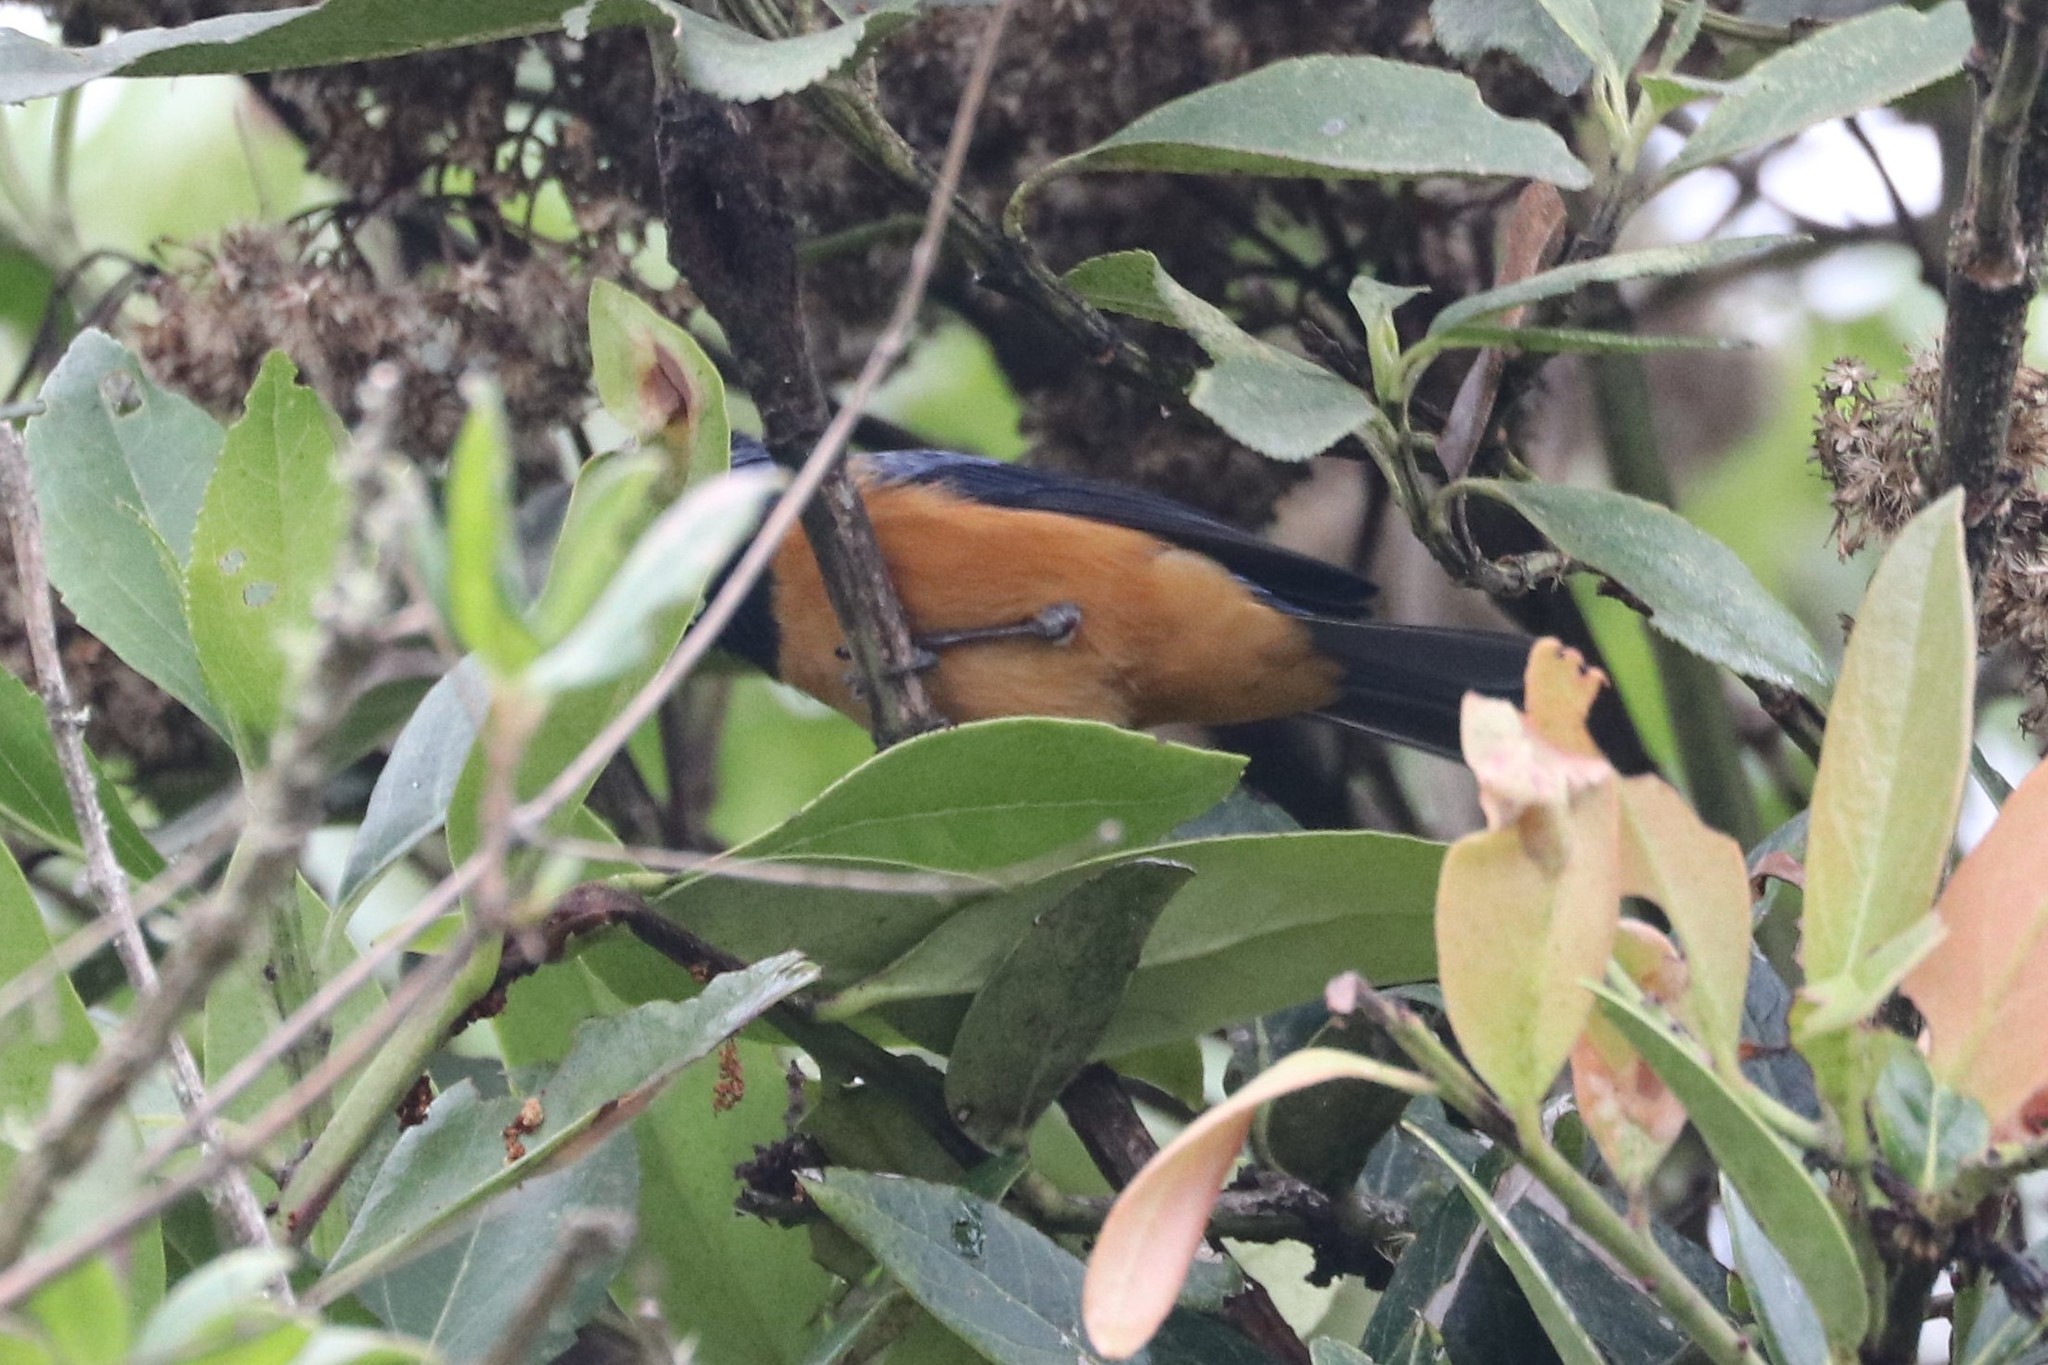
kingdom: Animalia
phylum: Chordata
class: Aves
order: Passeriformes
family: Thraupidae
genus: Conirostrum
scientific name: Conirostrum sitticolor
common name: Blue-backed conebill
